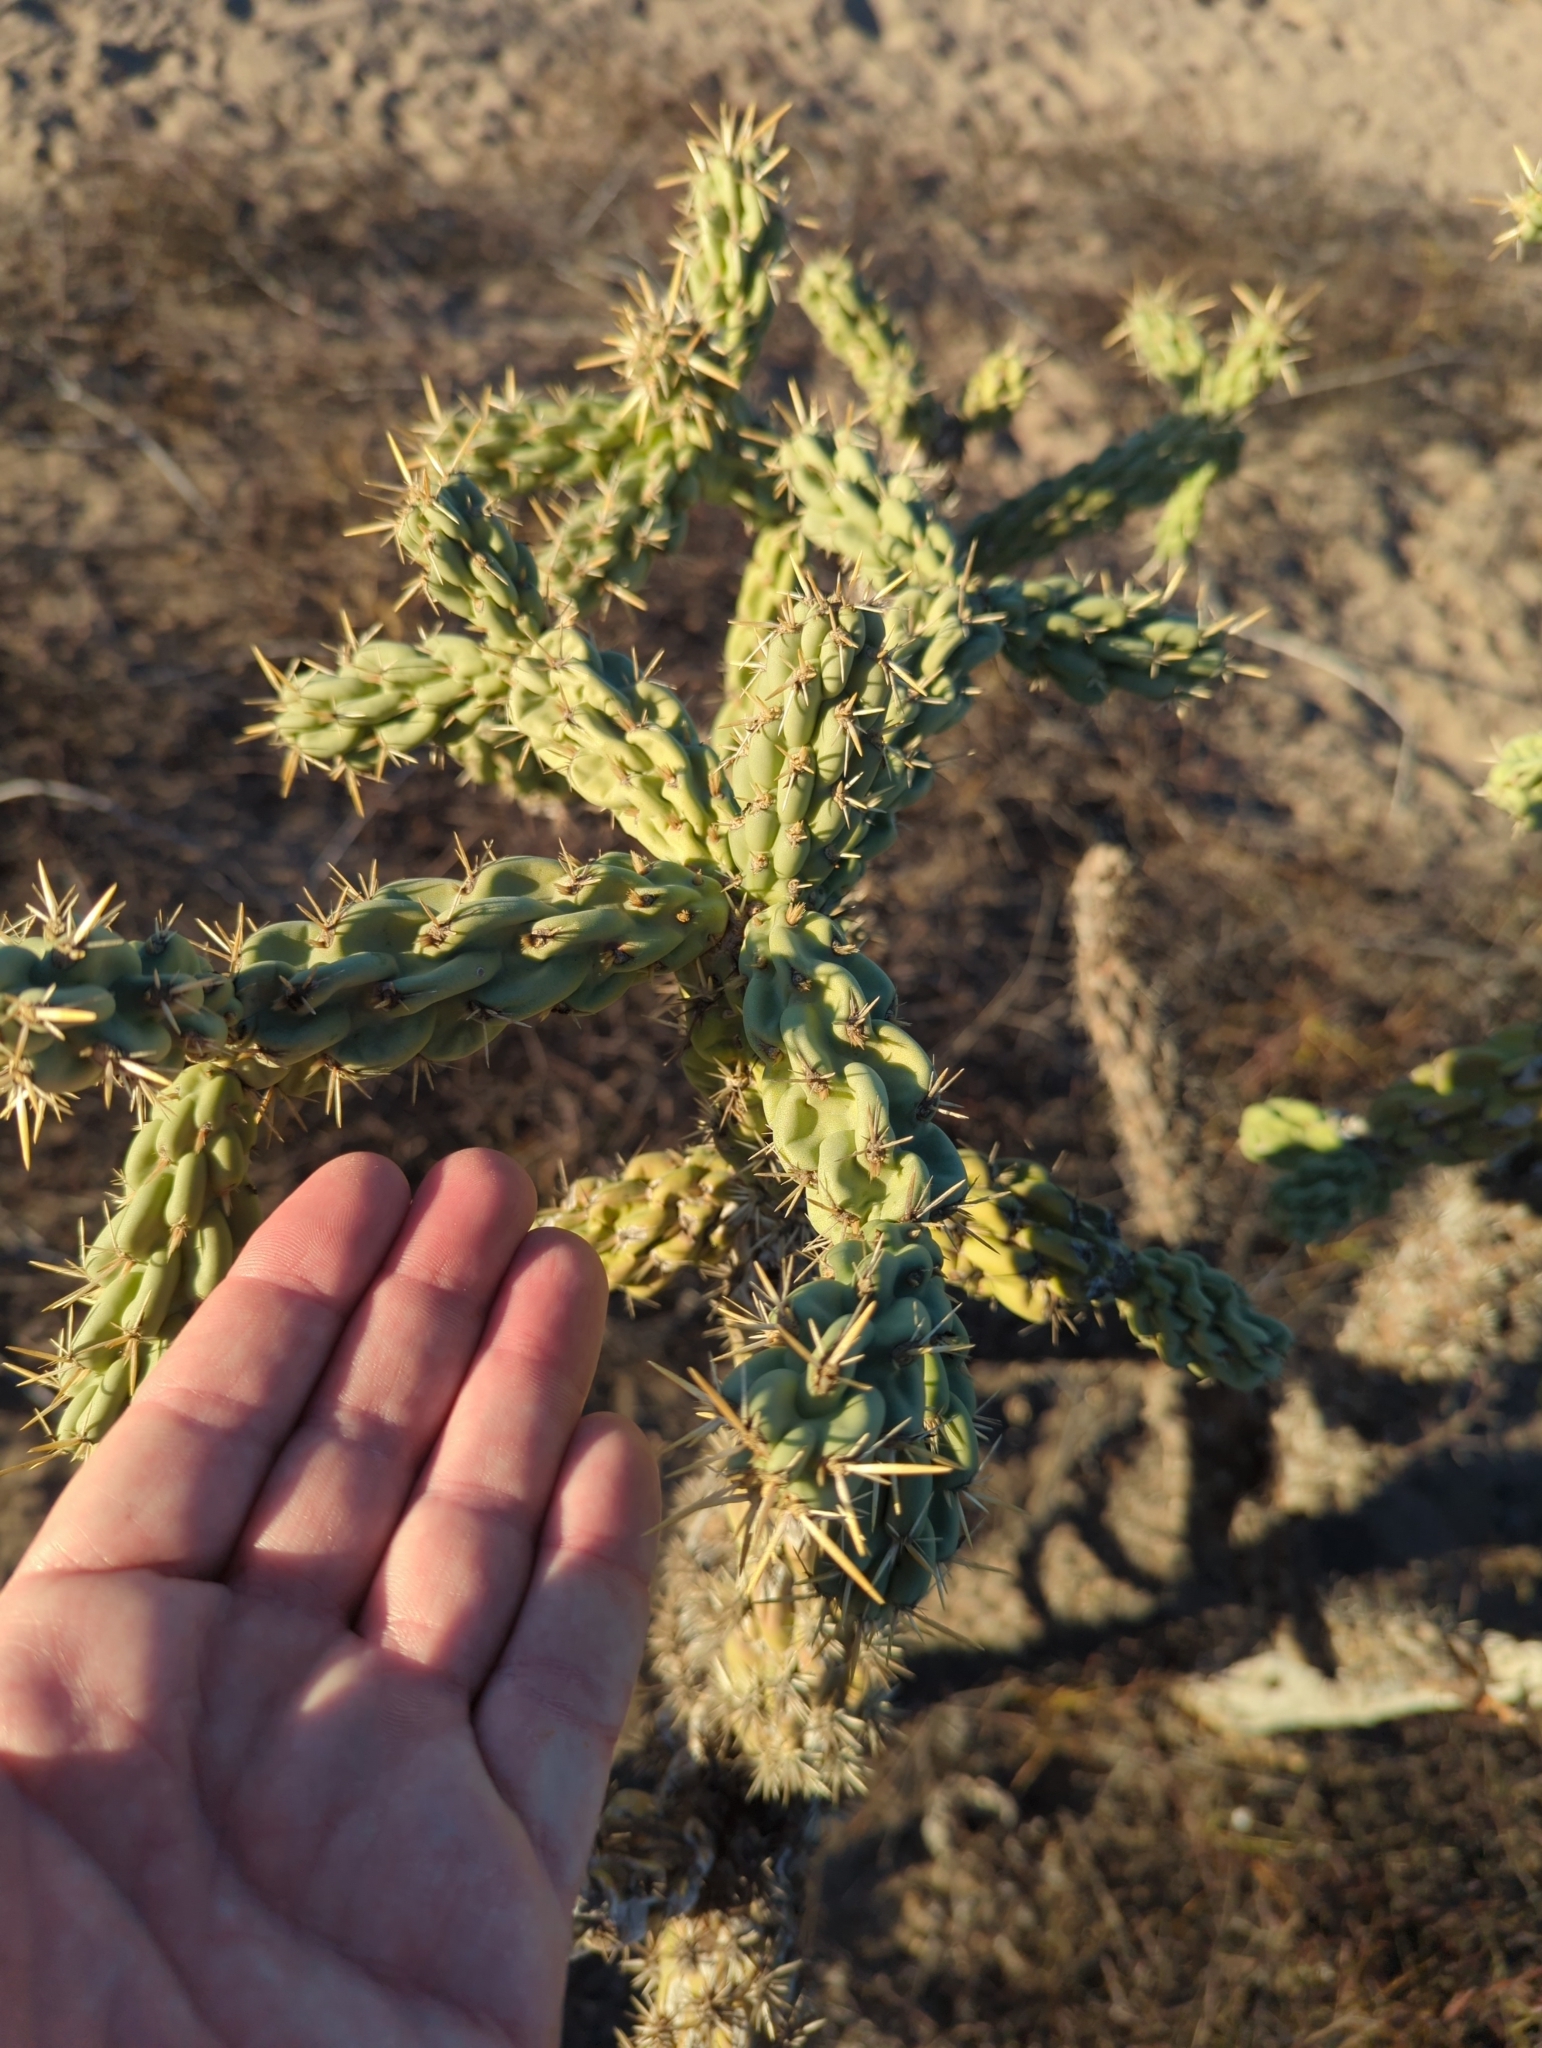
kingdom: Plantae
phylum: Tracheophyta
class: Magnoliopsida
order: Caryophyllales
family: Cactaceae
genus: Cylindropuntia
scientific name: Cylindropuntia cholla
